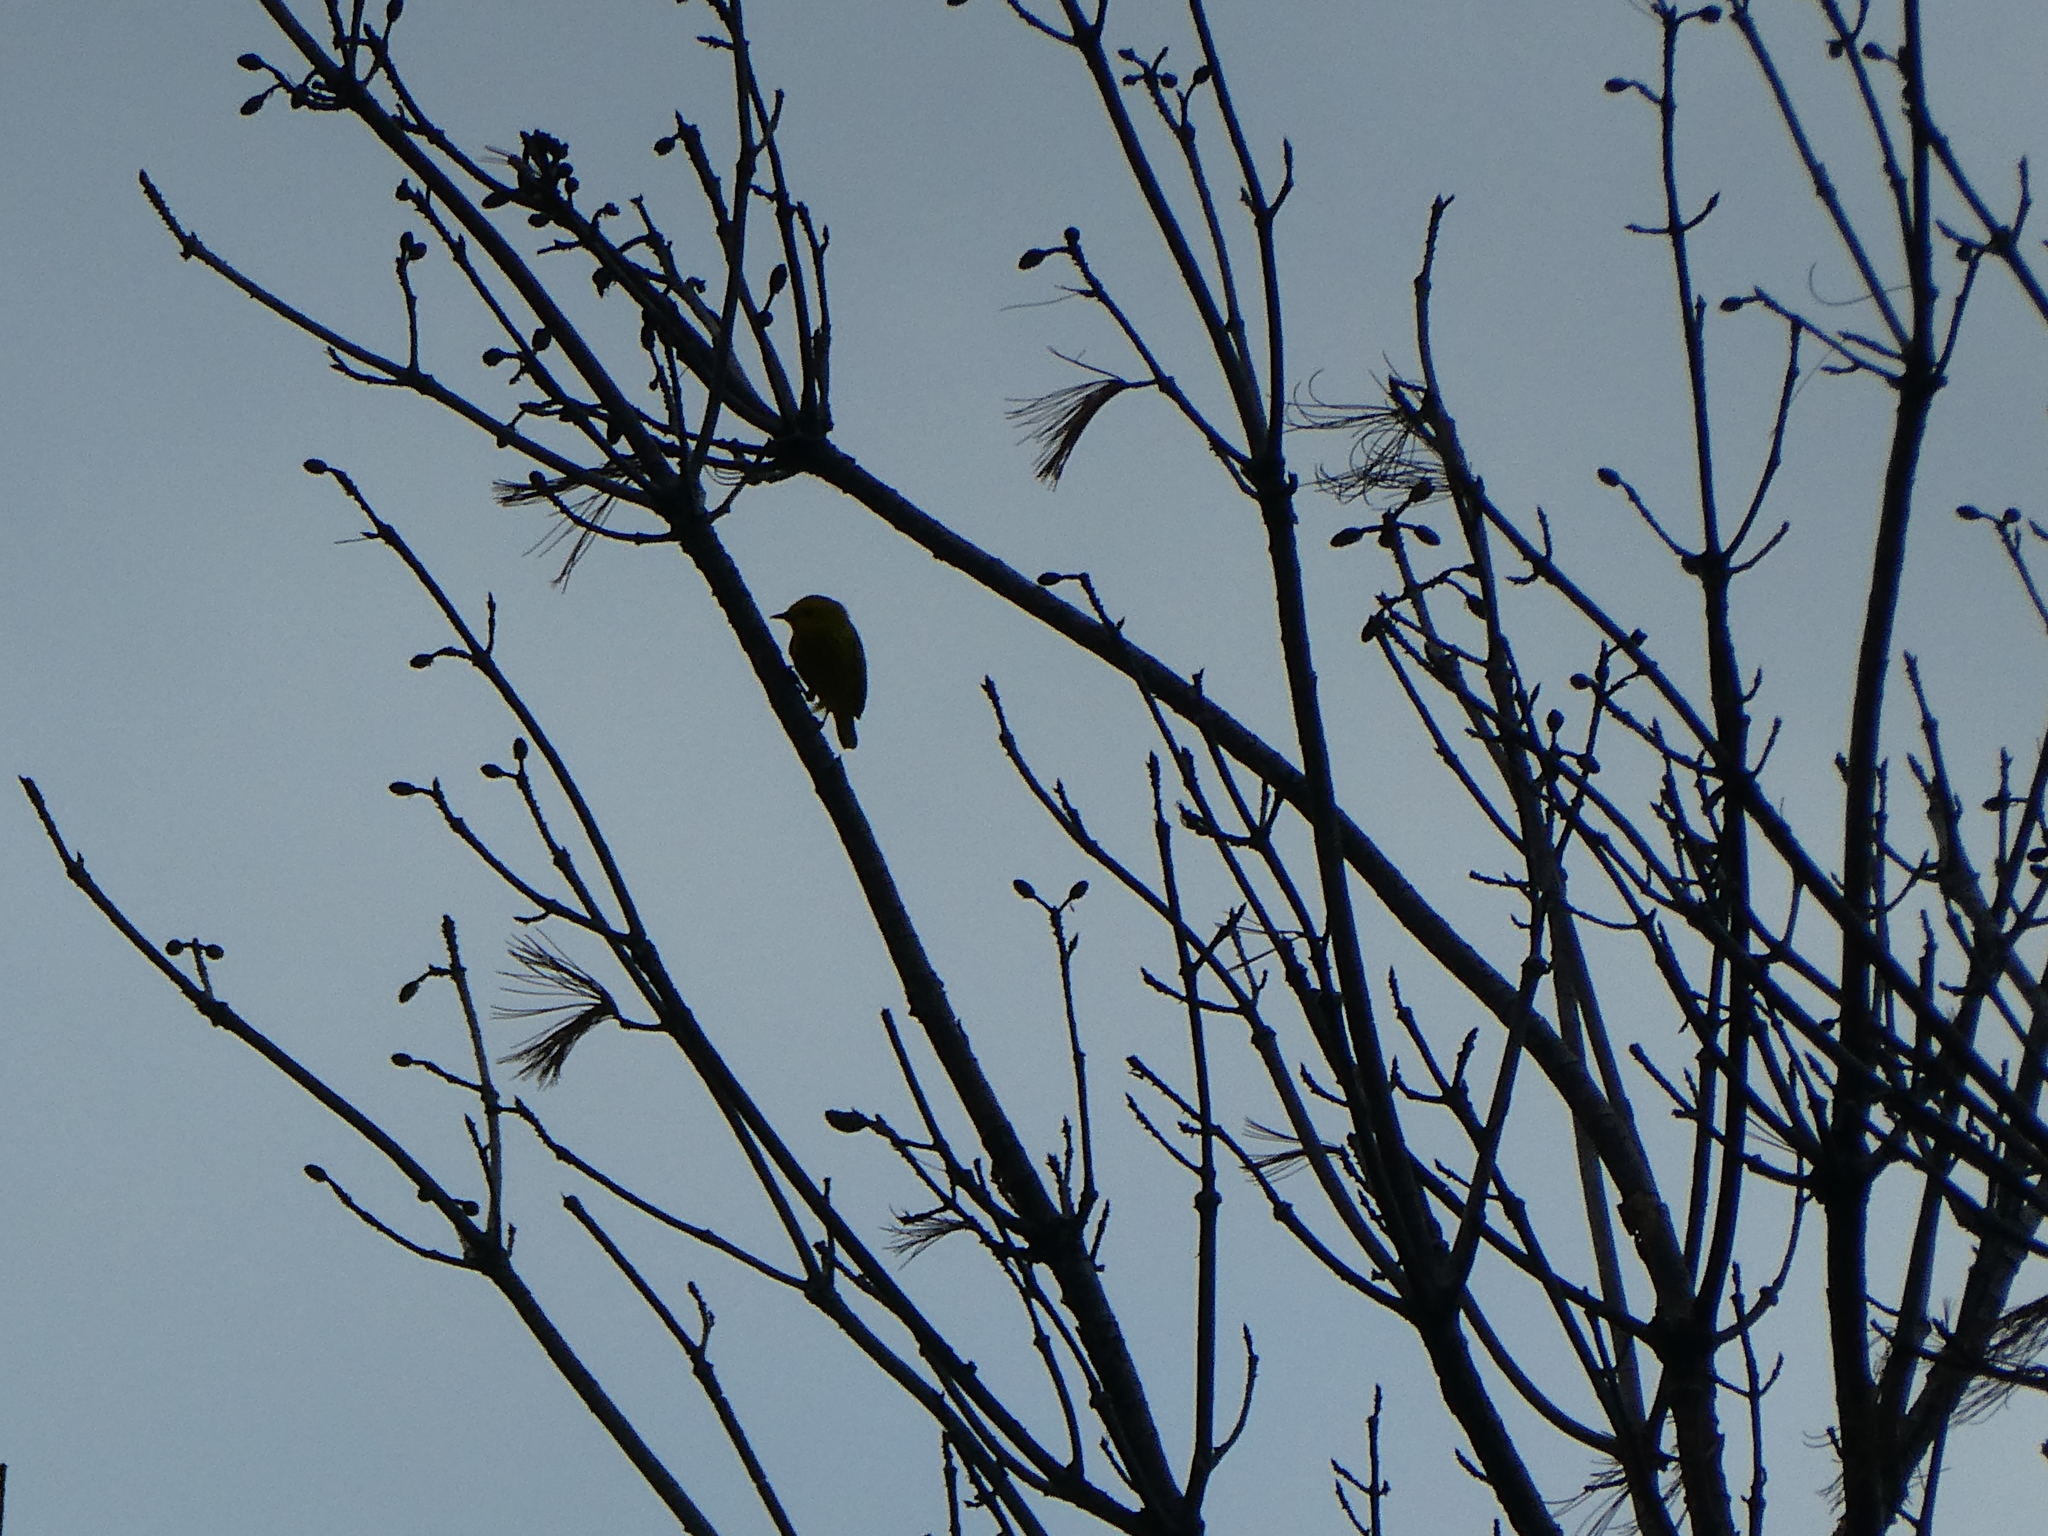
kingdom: Animalia
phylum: Chordata
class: Aves
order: Passeriformes
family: Parulidae
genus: Setophaga
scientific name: Setophaga petechia
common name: Yellow warbler
